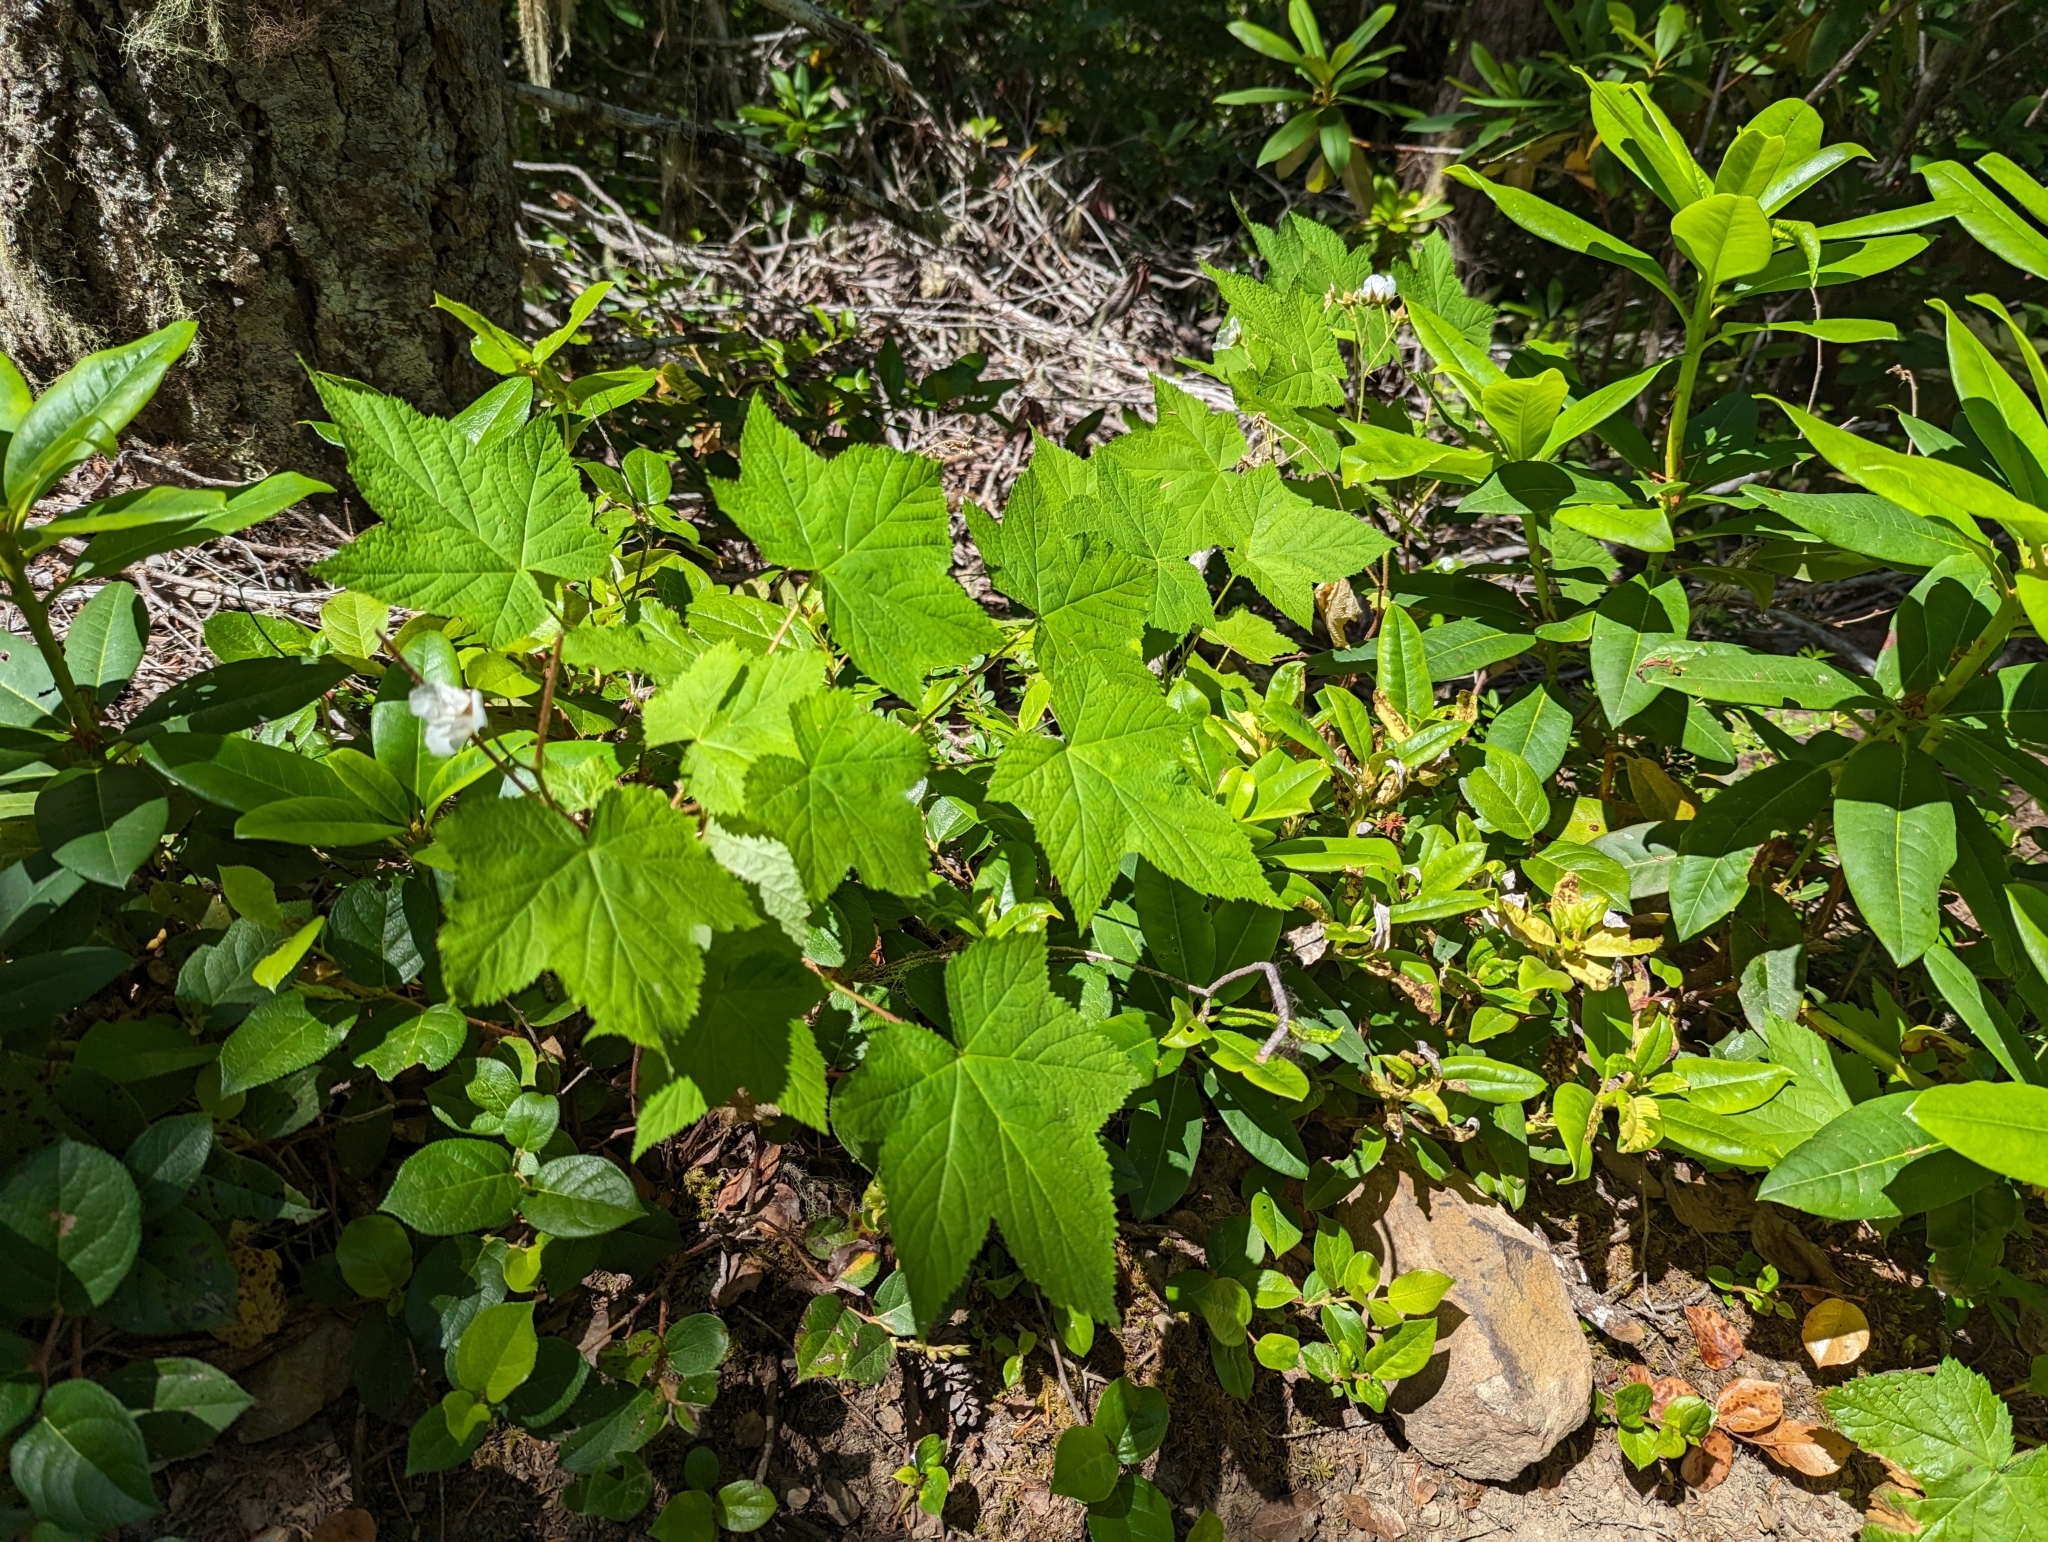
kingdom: Plantae
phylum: Tracheophyta
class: Magnoliopsida
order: Rosales
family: Rosaceae
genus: Rubus
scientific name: Rubus parviflorus
